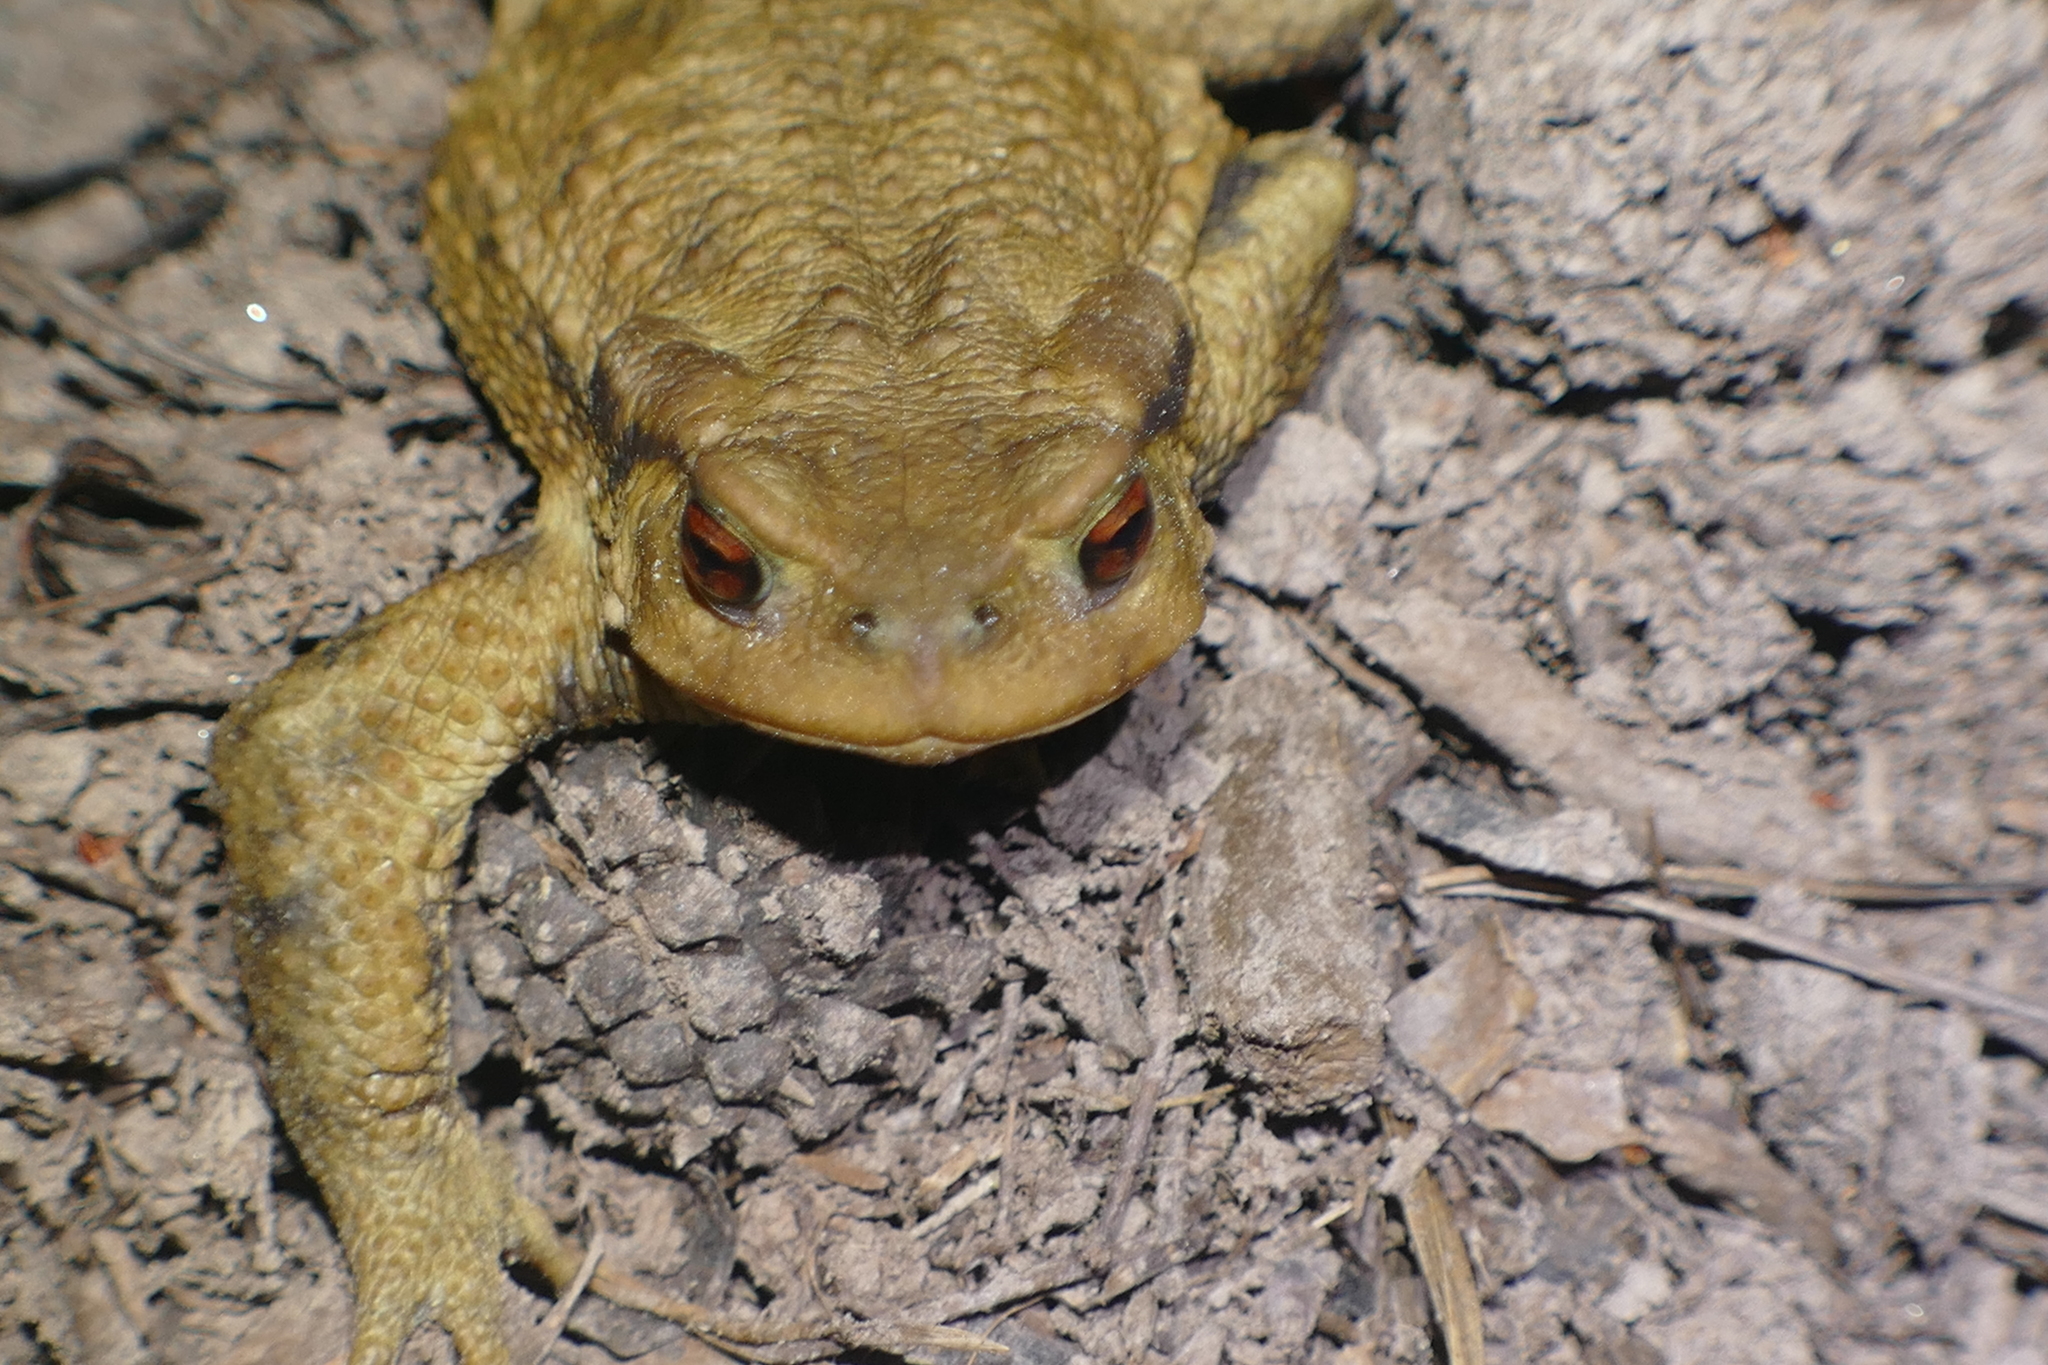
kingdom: Animalia
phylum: Chordata
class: Amphibia
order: Anura
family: Bufonidae
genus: Bufo
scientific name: Bufo spinosus
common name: Western common toad
